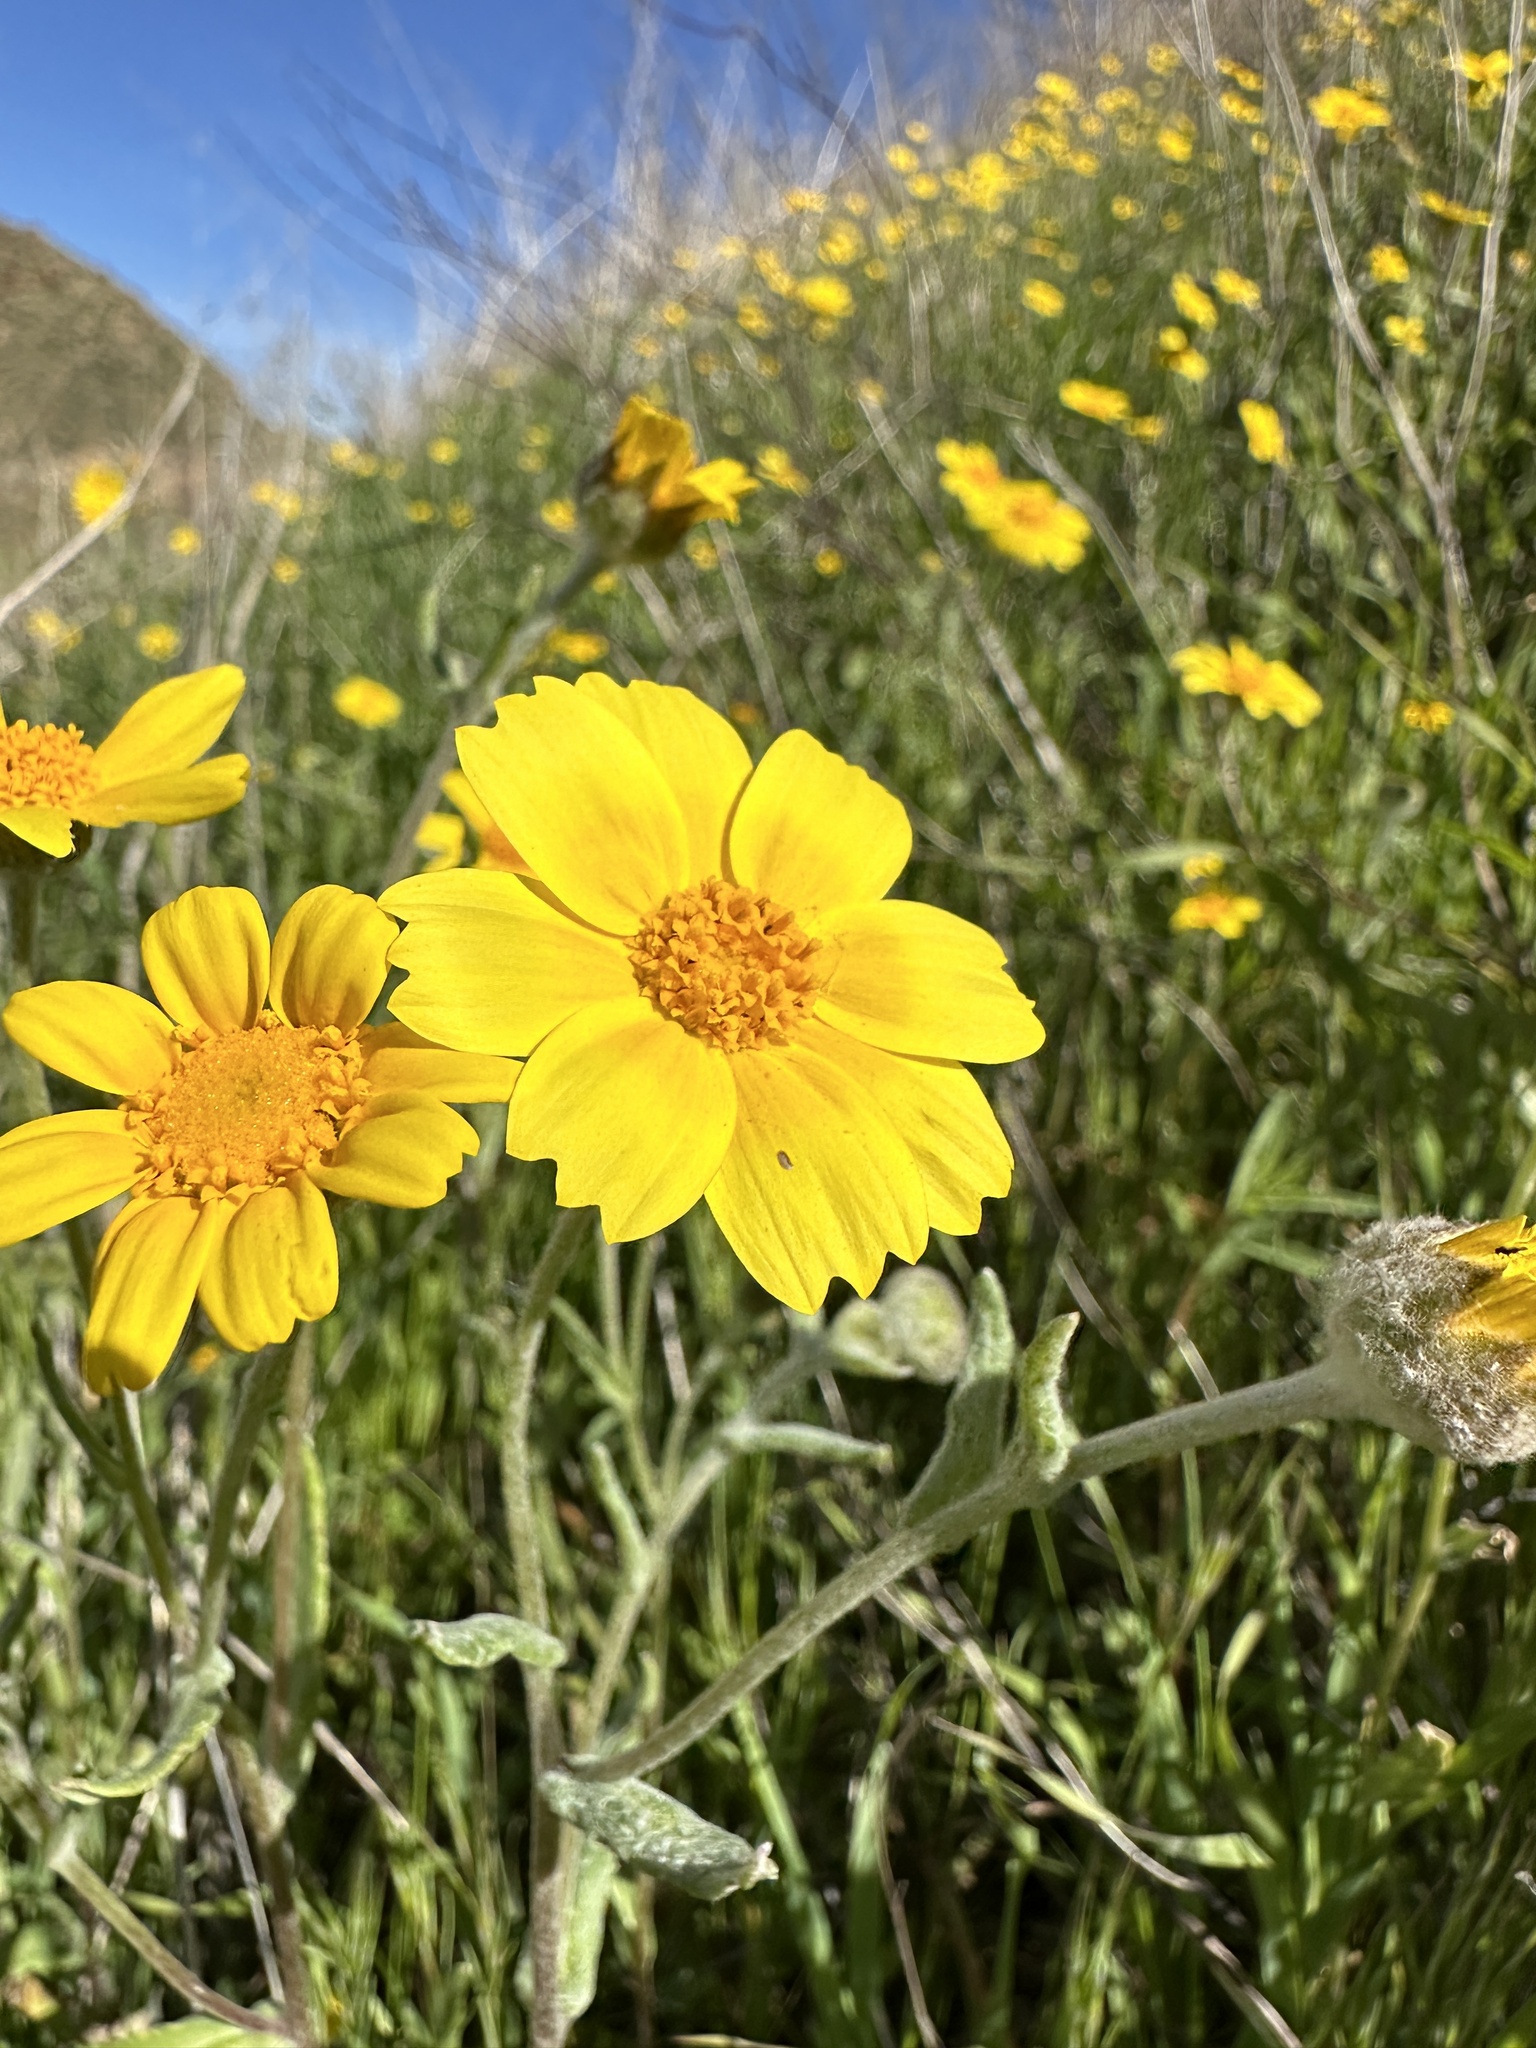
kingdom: Plantae
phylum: Tracheophyta
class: Magnoliopsida
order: Asterales
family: Asteraceae
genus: Monolopia
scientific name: Monolopia lanceolata
